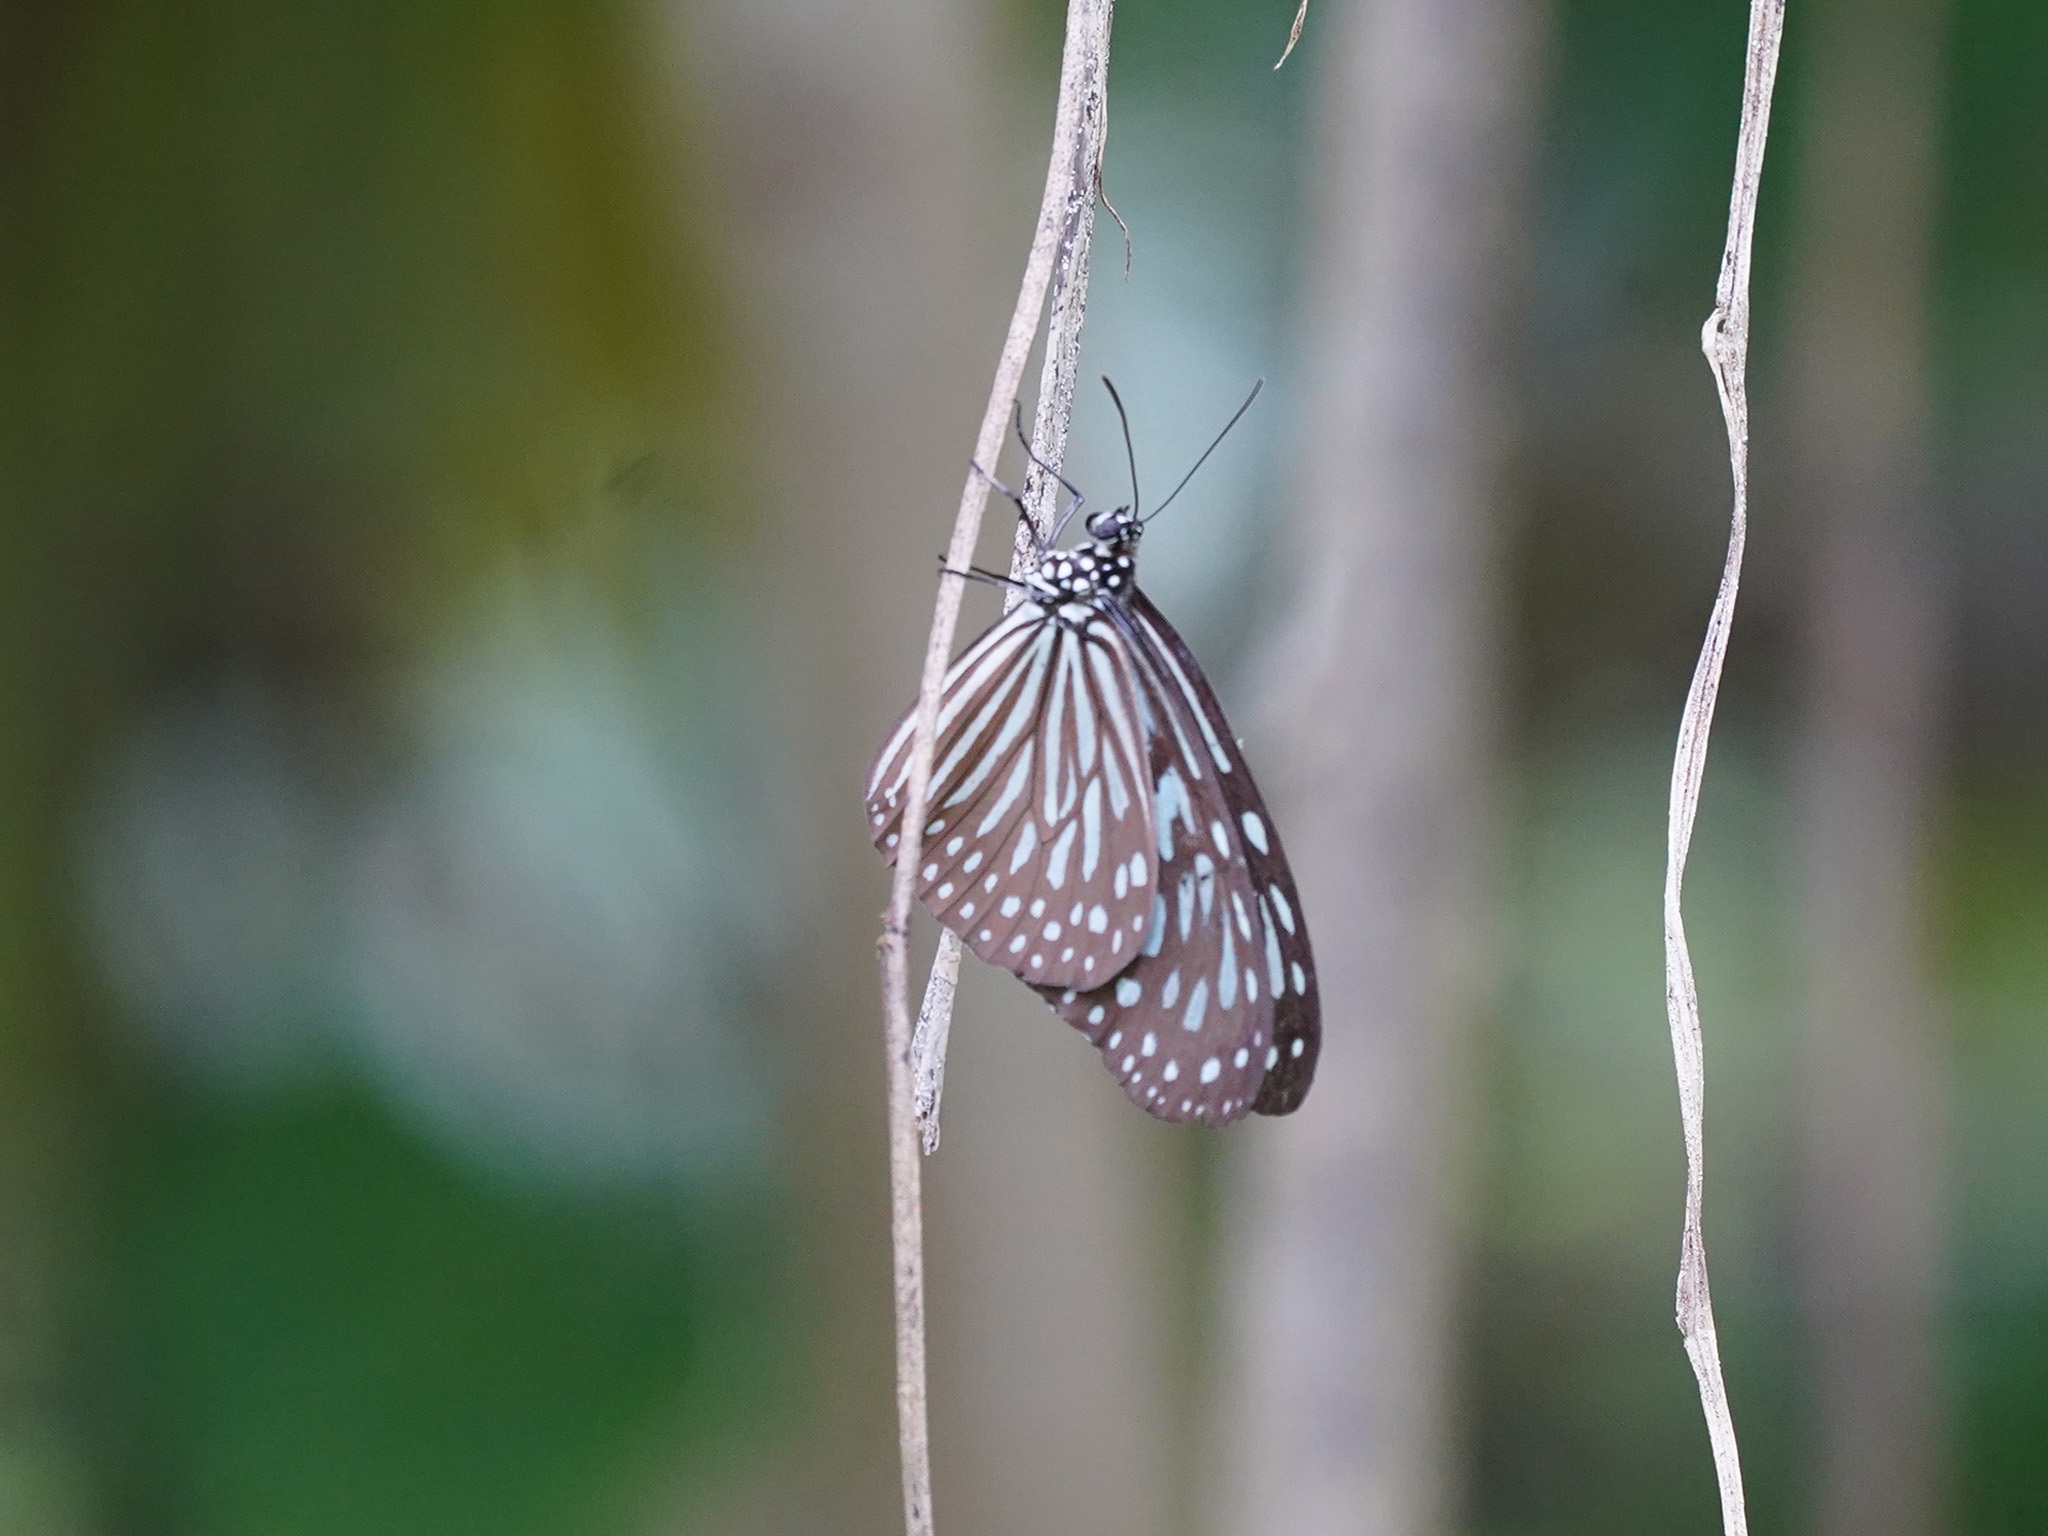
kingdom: Animalia
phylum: Arthropoda
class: Insecta
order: Lepidoptera
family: Nymphalidae
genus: Ideopsis
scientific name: Ideopsis vulgaris
